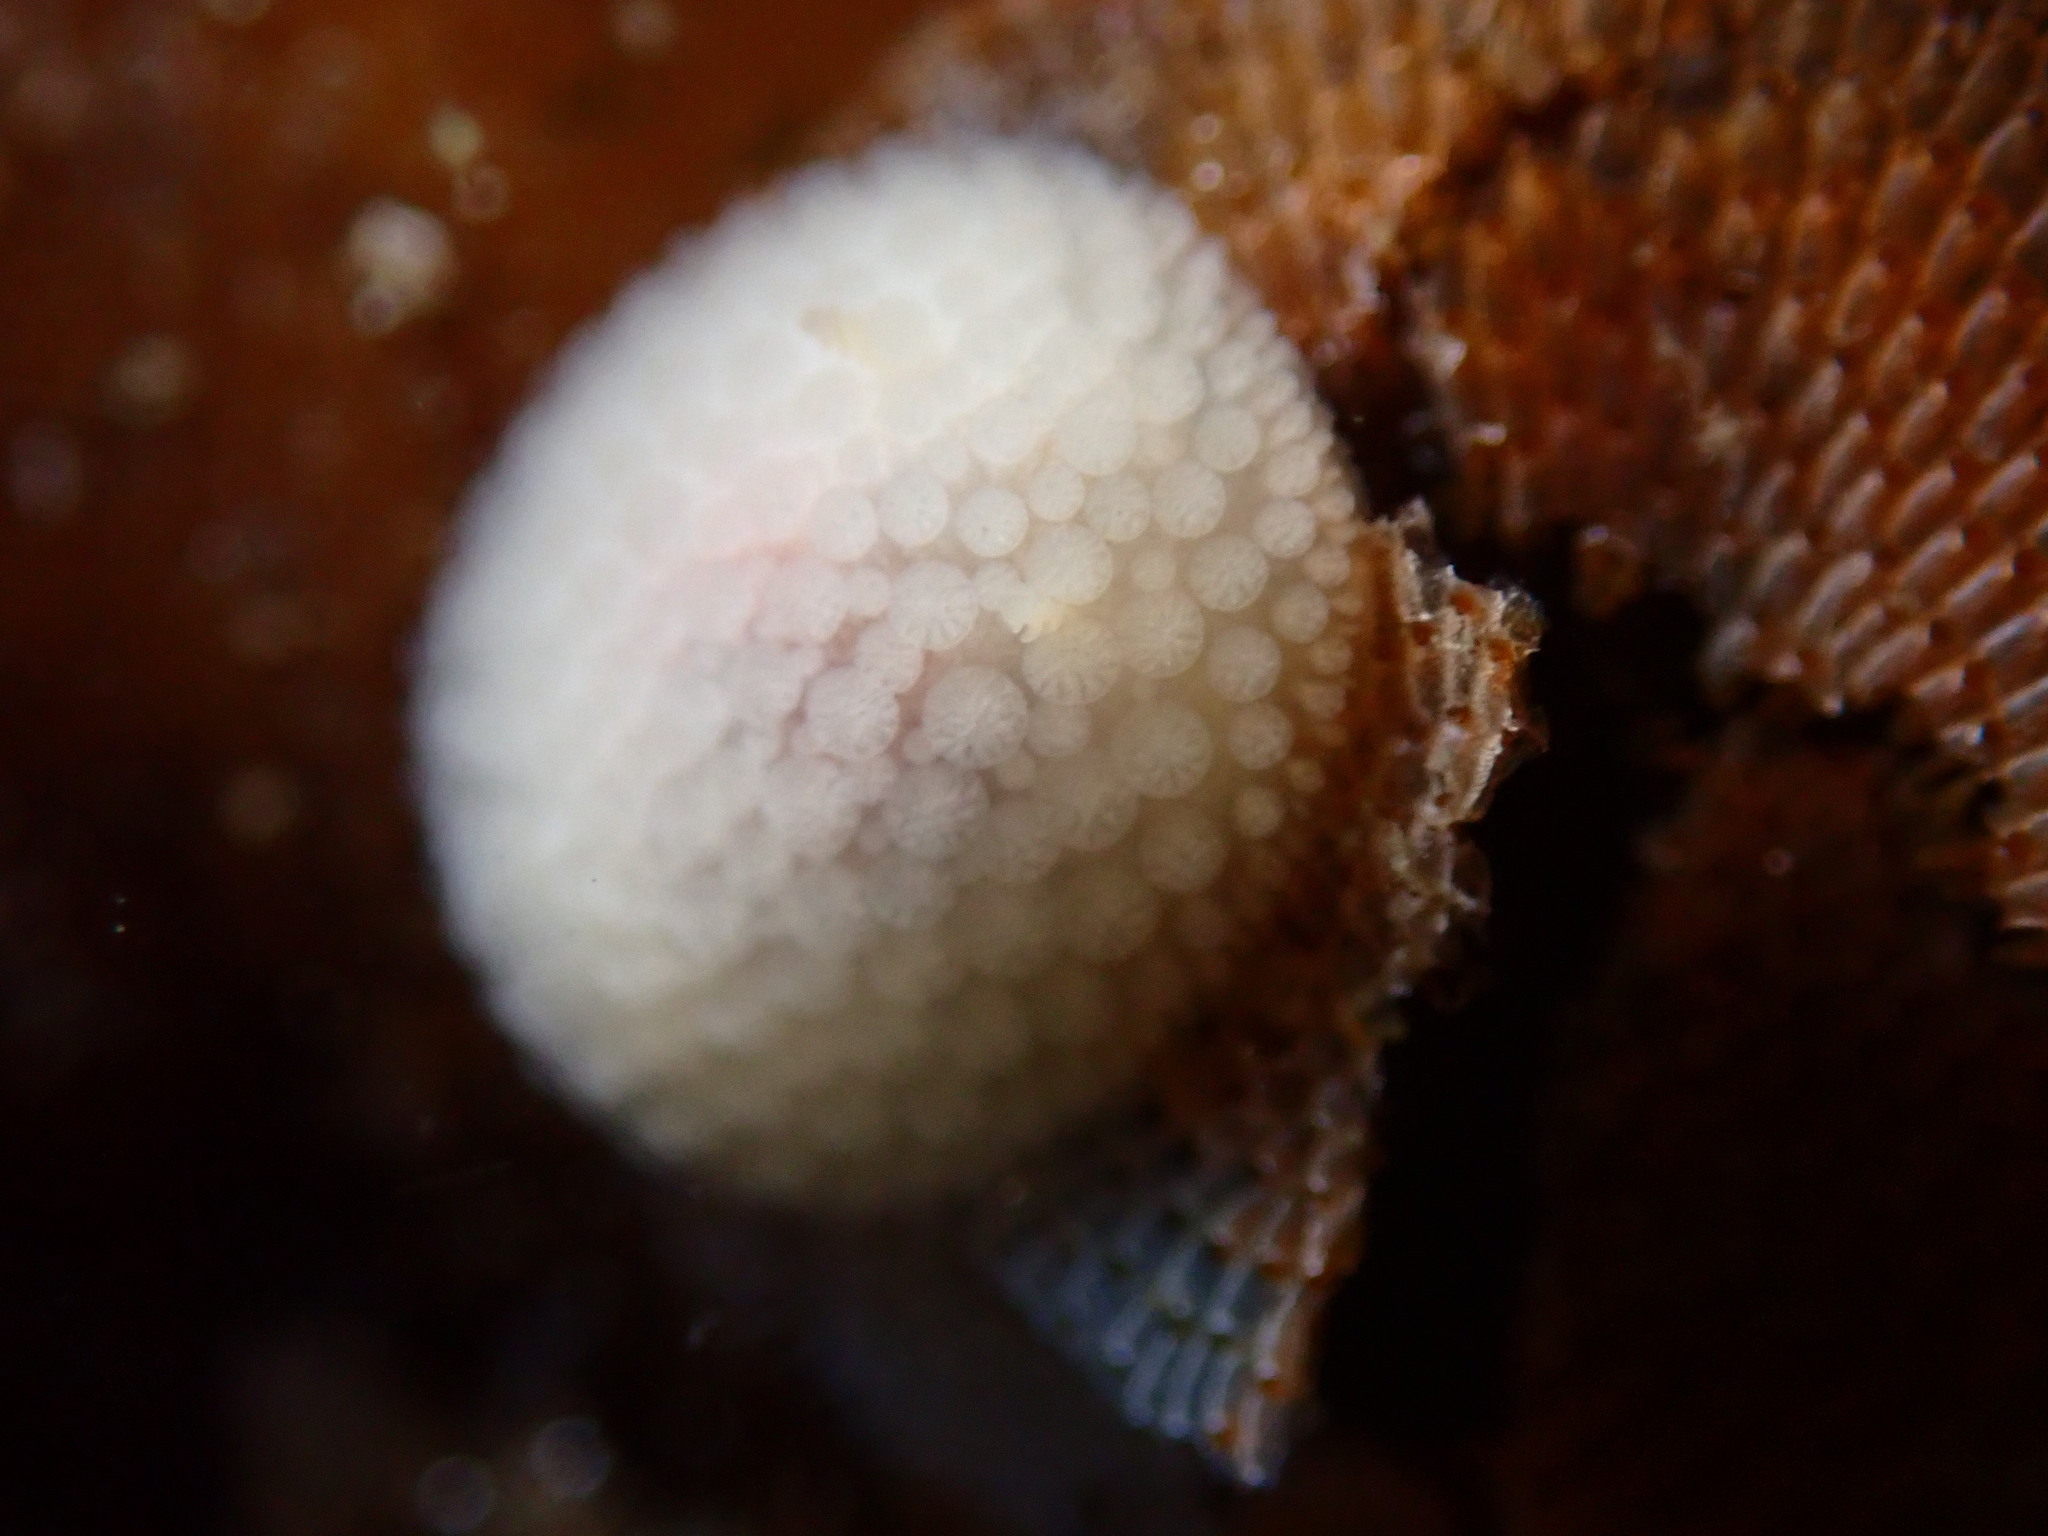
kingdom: Animalia
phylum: Mollusca
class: Gastropoda
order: Nudibranchia
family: Onchidorididae
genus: Onchidoris
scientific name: Onchidoris muricata
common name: Rough doris
